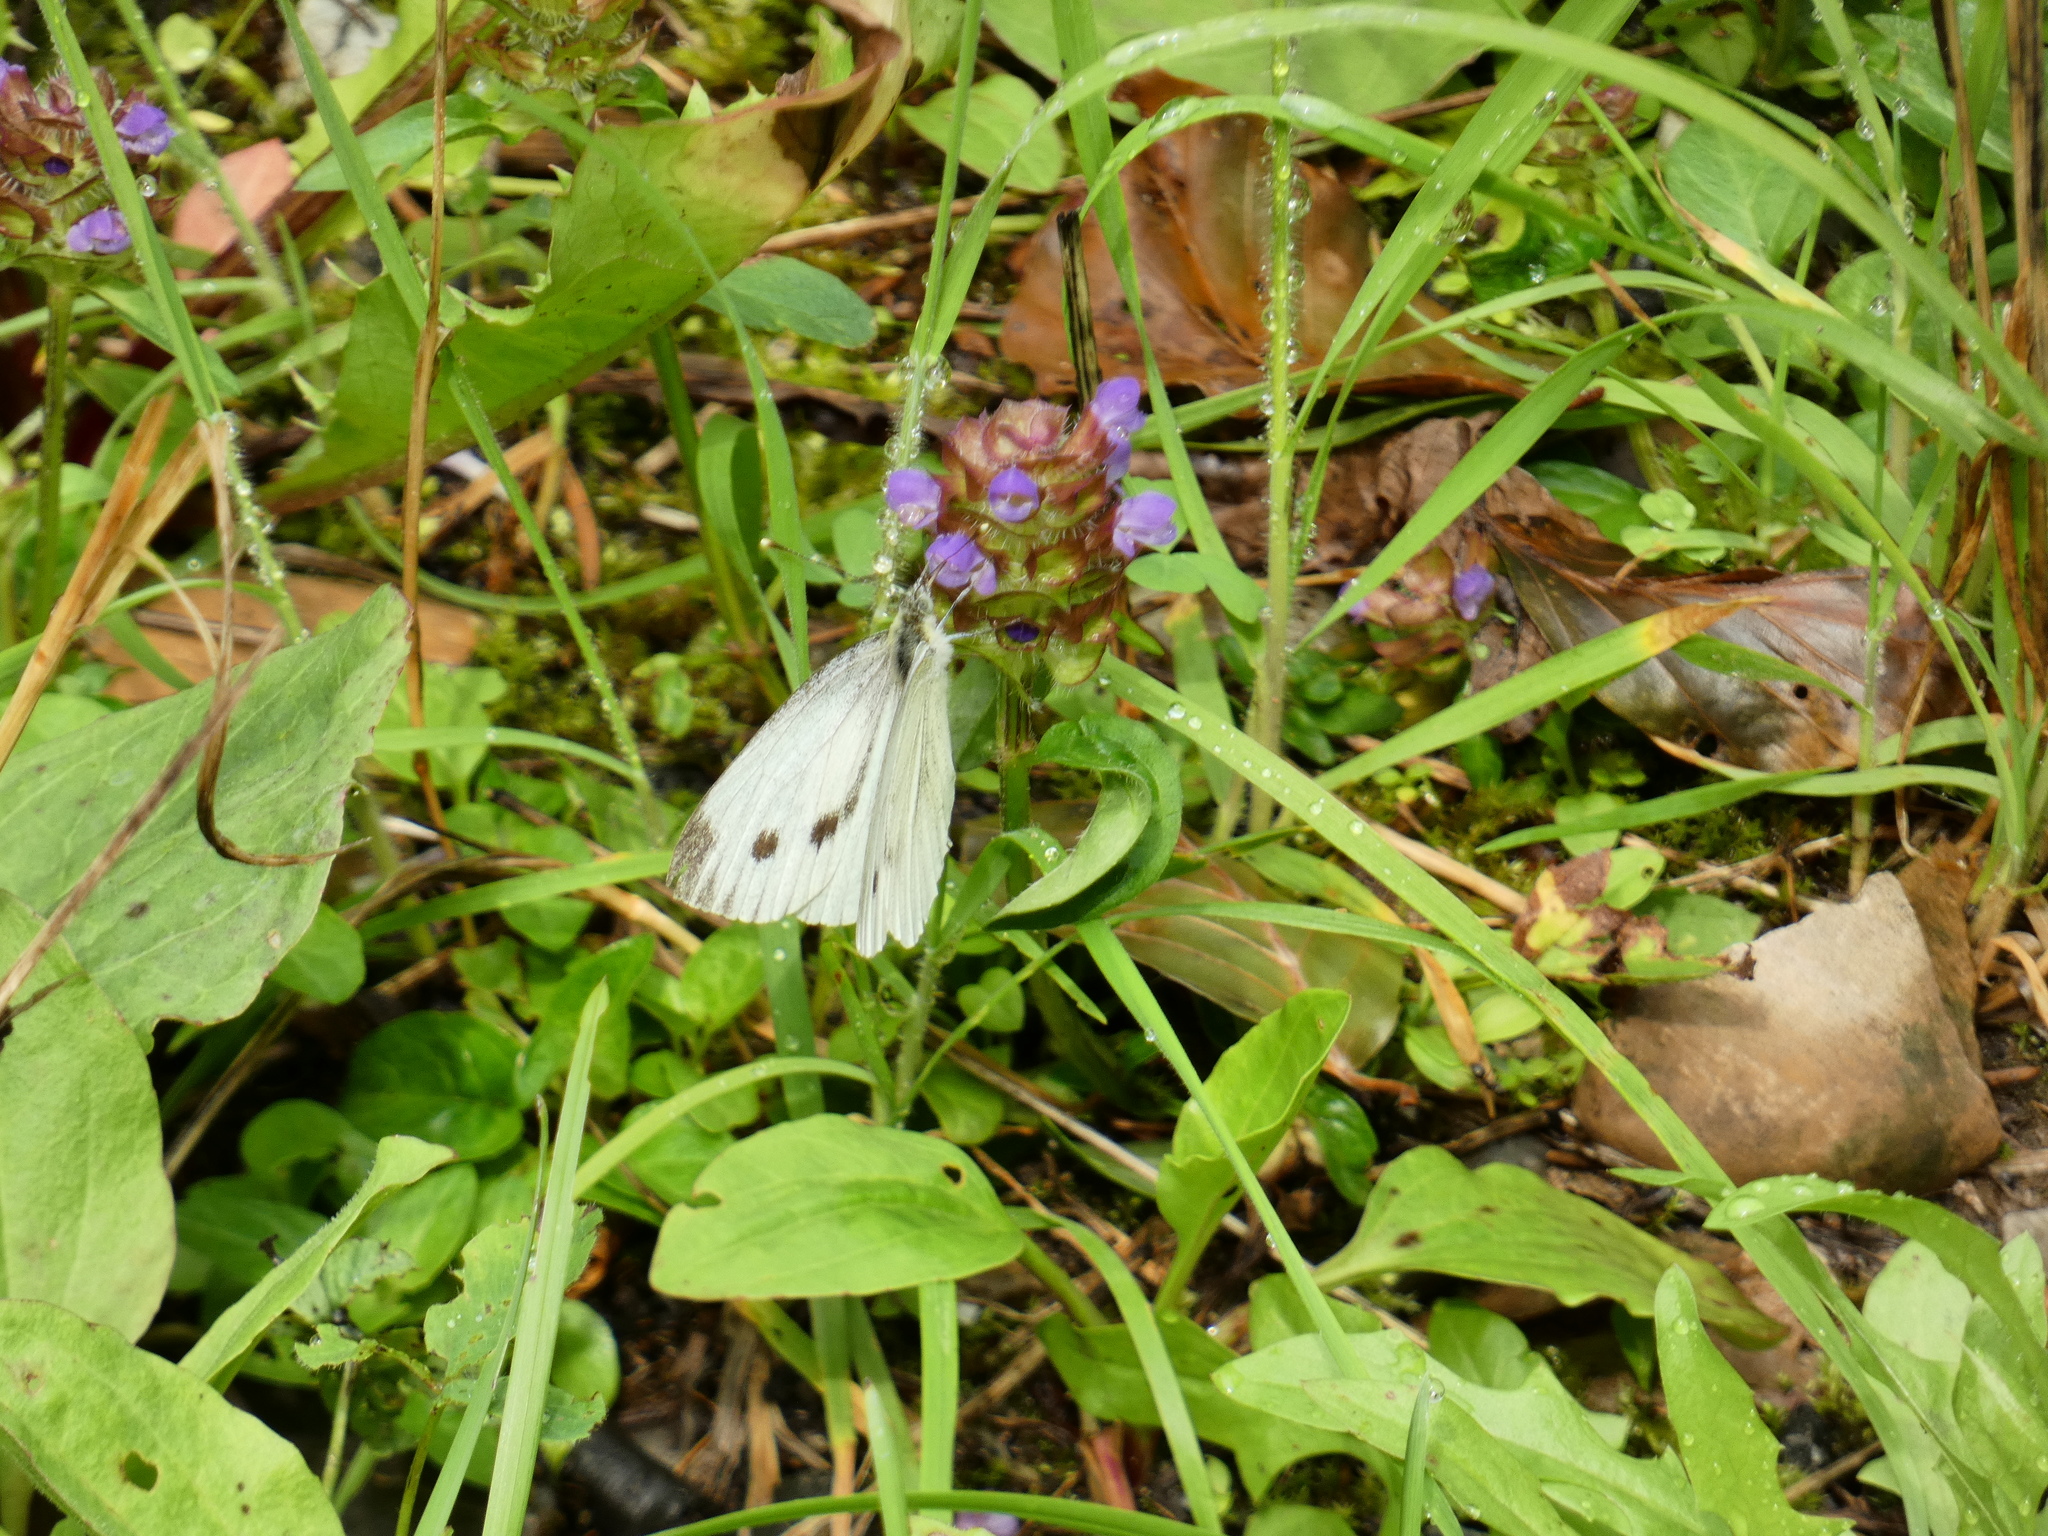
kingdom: Animalia
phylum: Arthropoda
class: Insecta
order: Lepidoptera
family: Pieridae
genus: Pieris
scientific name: Pieris napi
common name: Green-veined white
